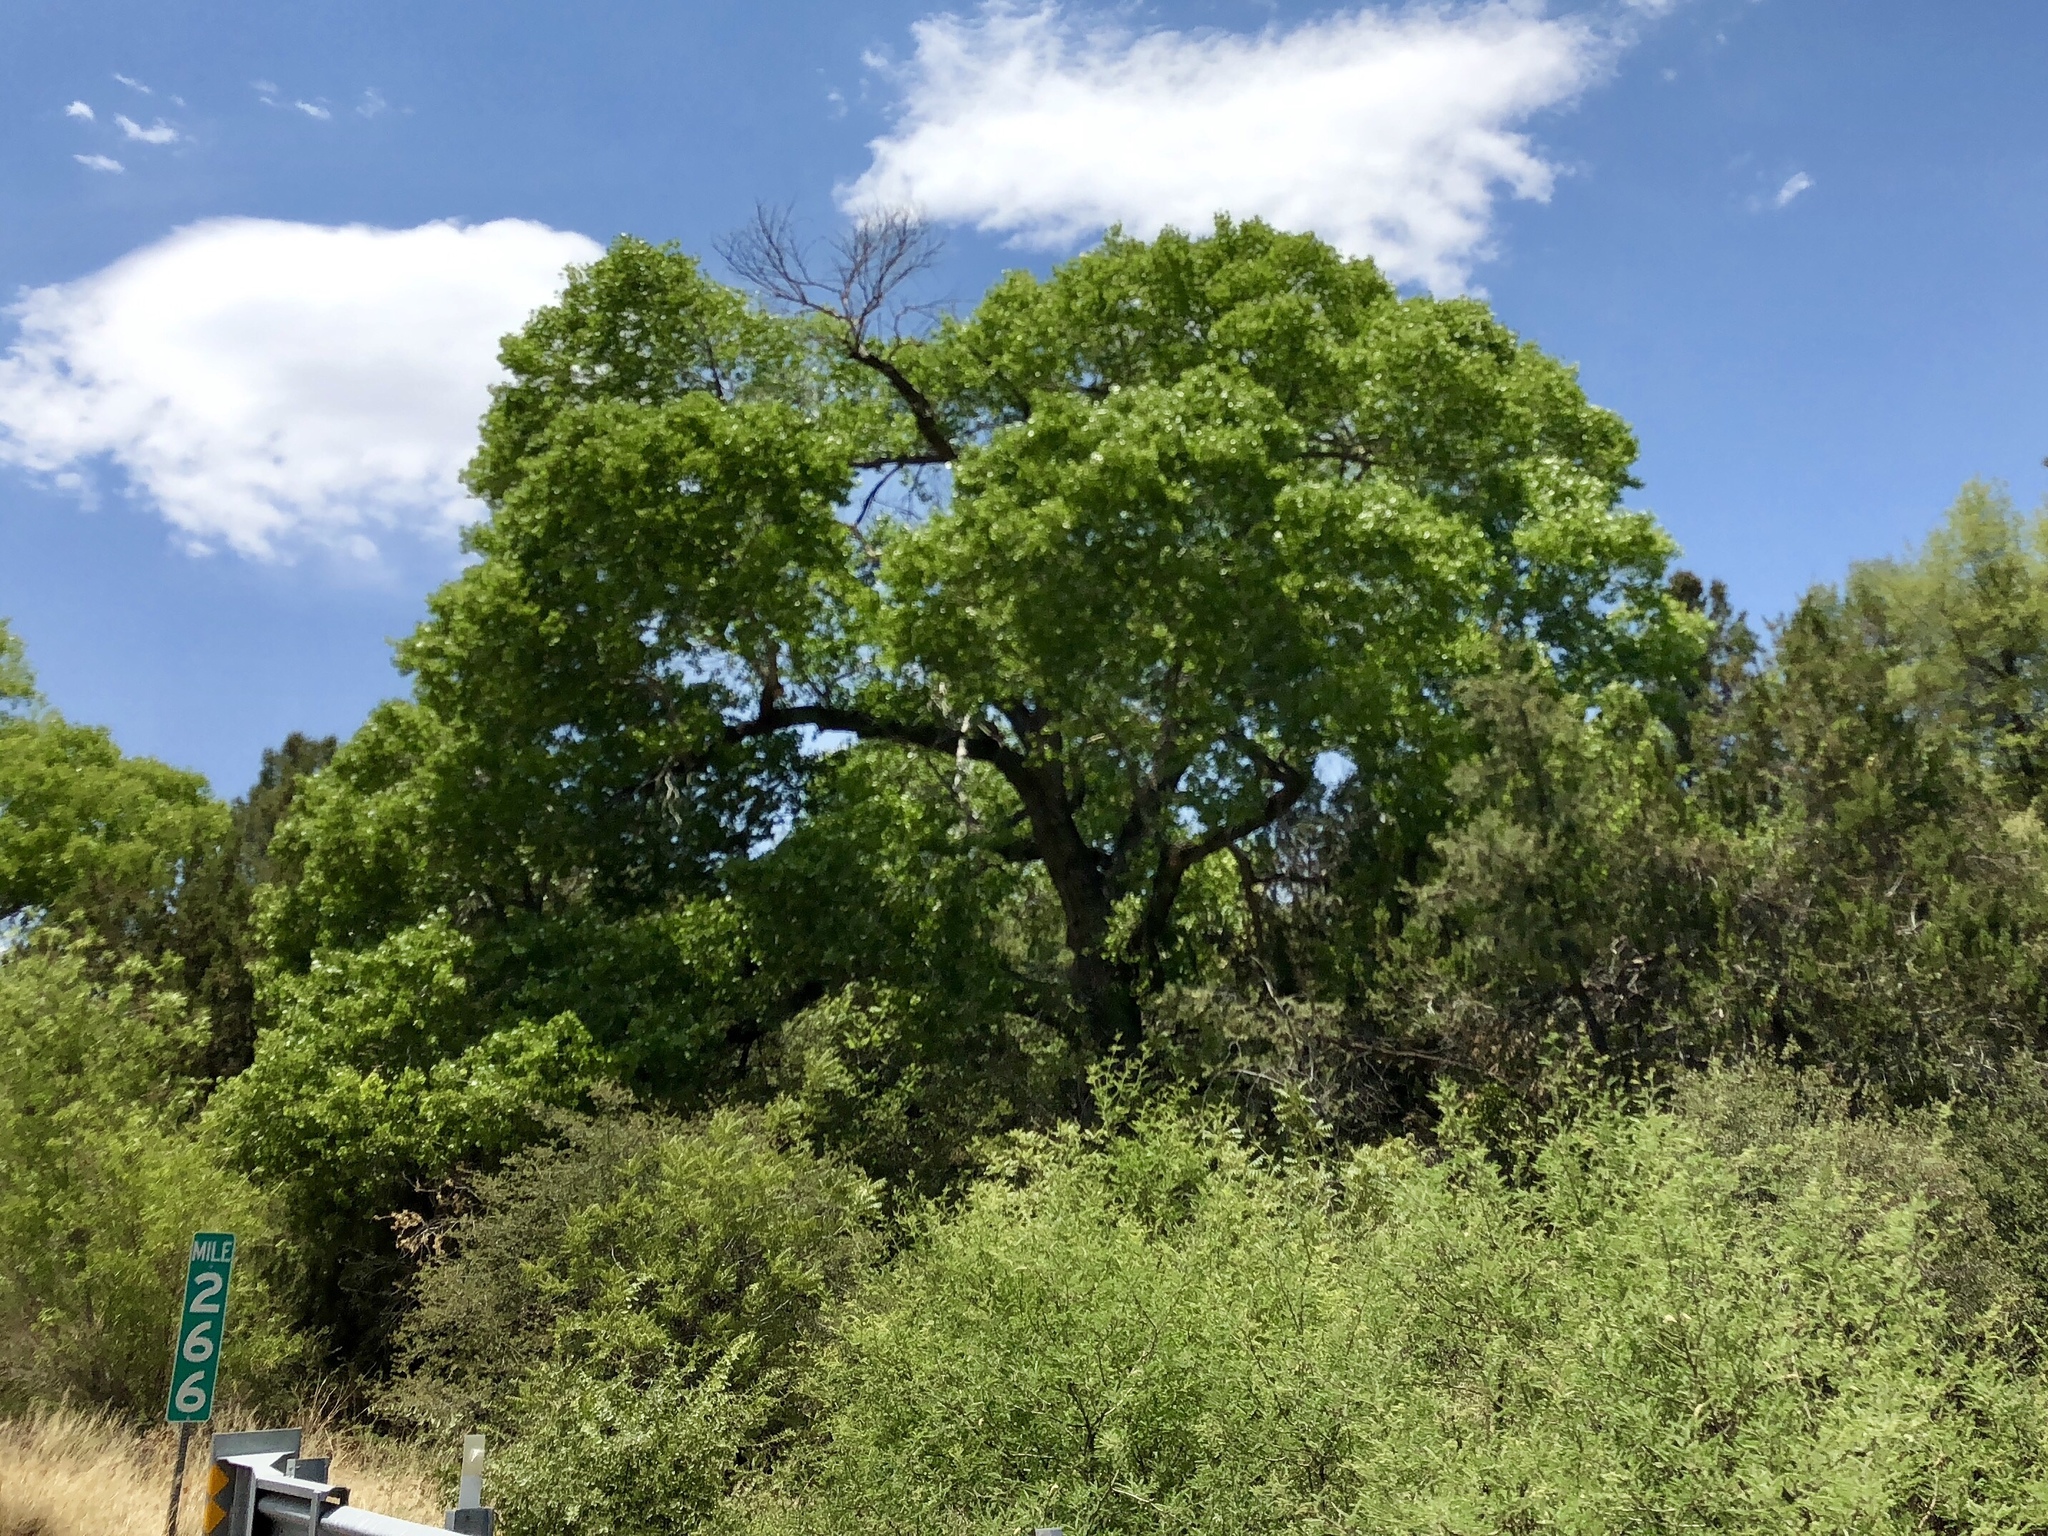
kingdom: Plantae
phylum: Tracheophyta
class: Magnoliopsida
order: Malpighiales
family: Salicaceae
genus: Populus
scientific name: Populus fremontii
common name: Fremont's cottonwood
